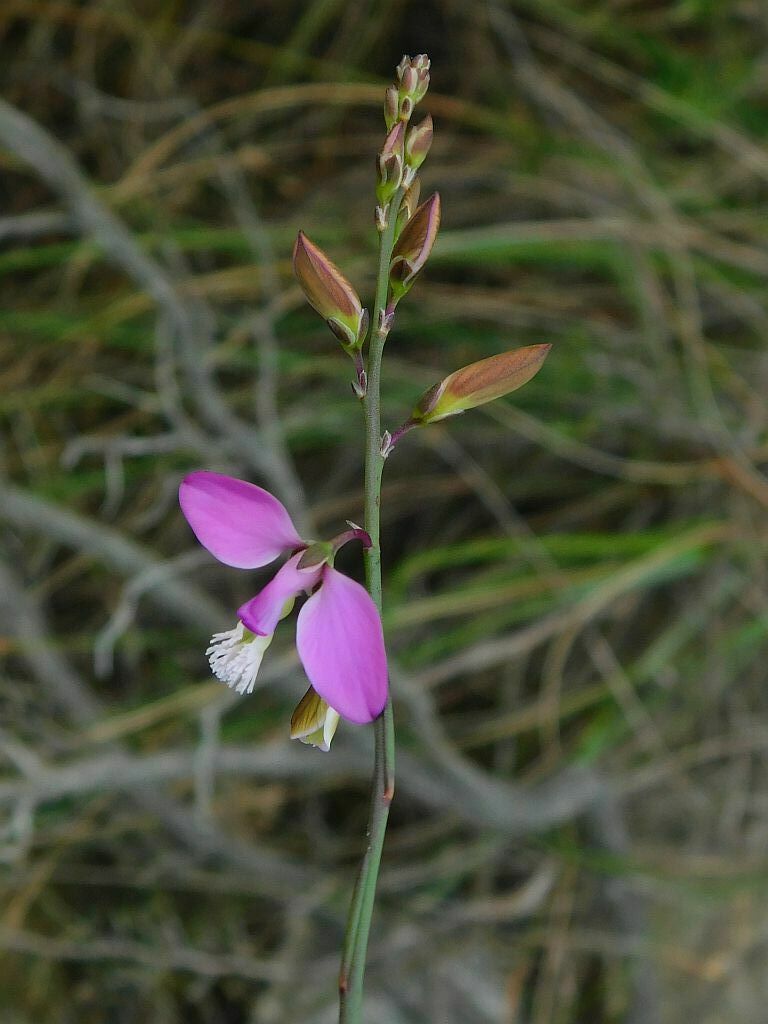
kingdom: Plantae
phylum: Tracheophyta
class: Magnoliopsida
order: Fabales
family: Polygalaceae
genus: Polygala
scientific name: Polygala garcini
